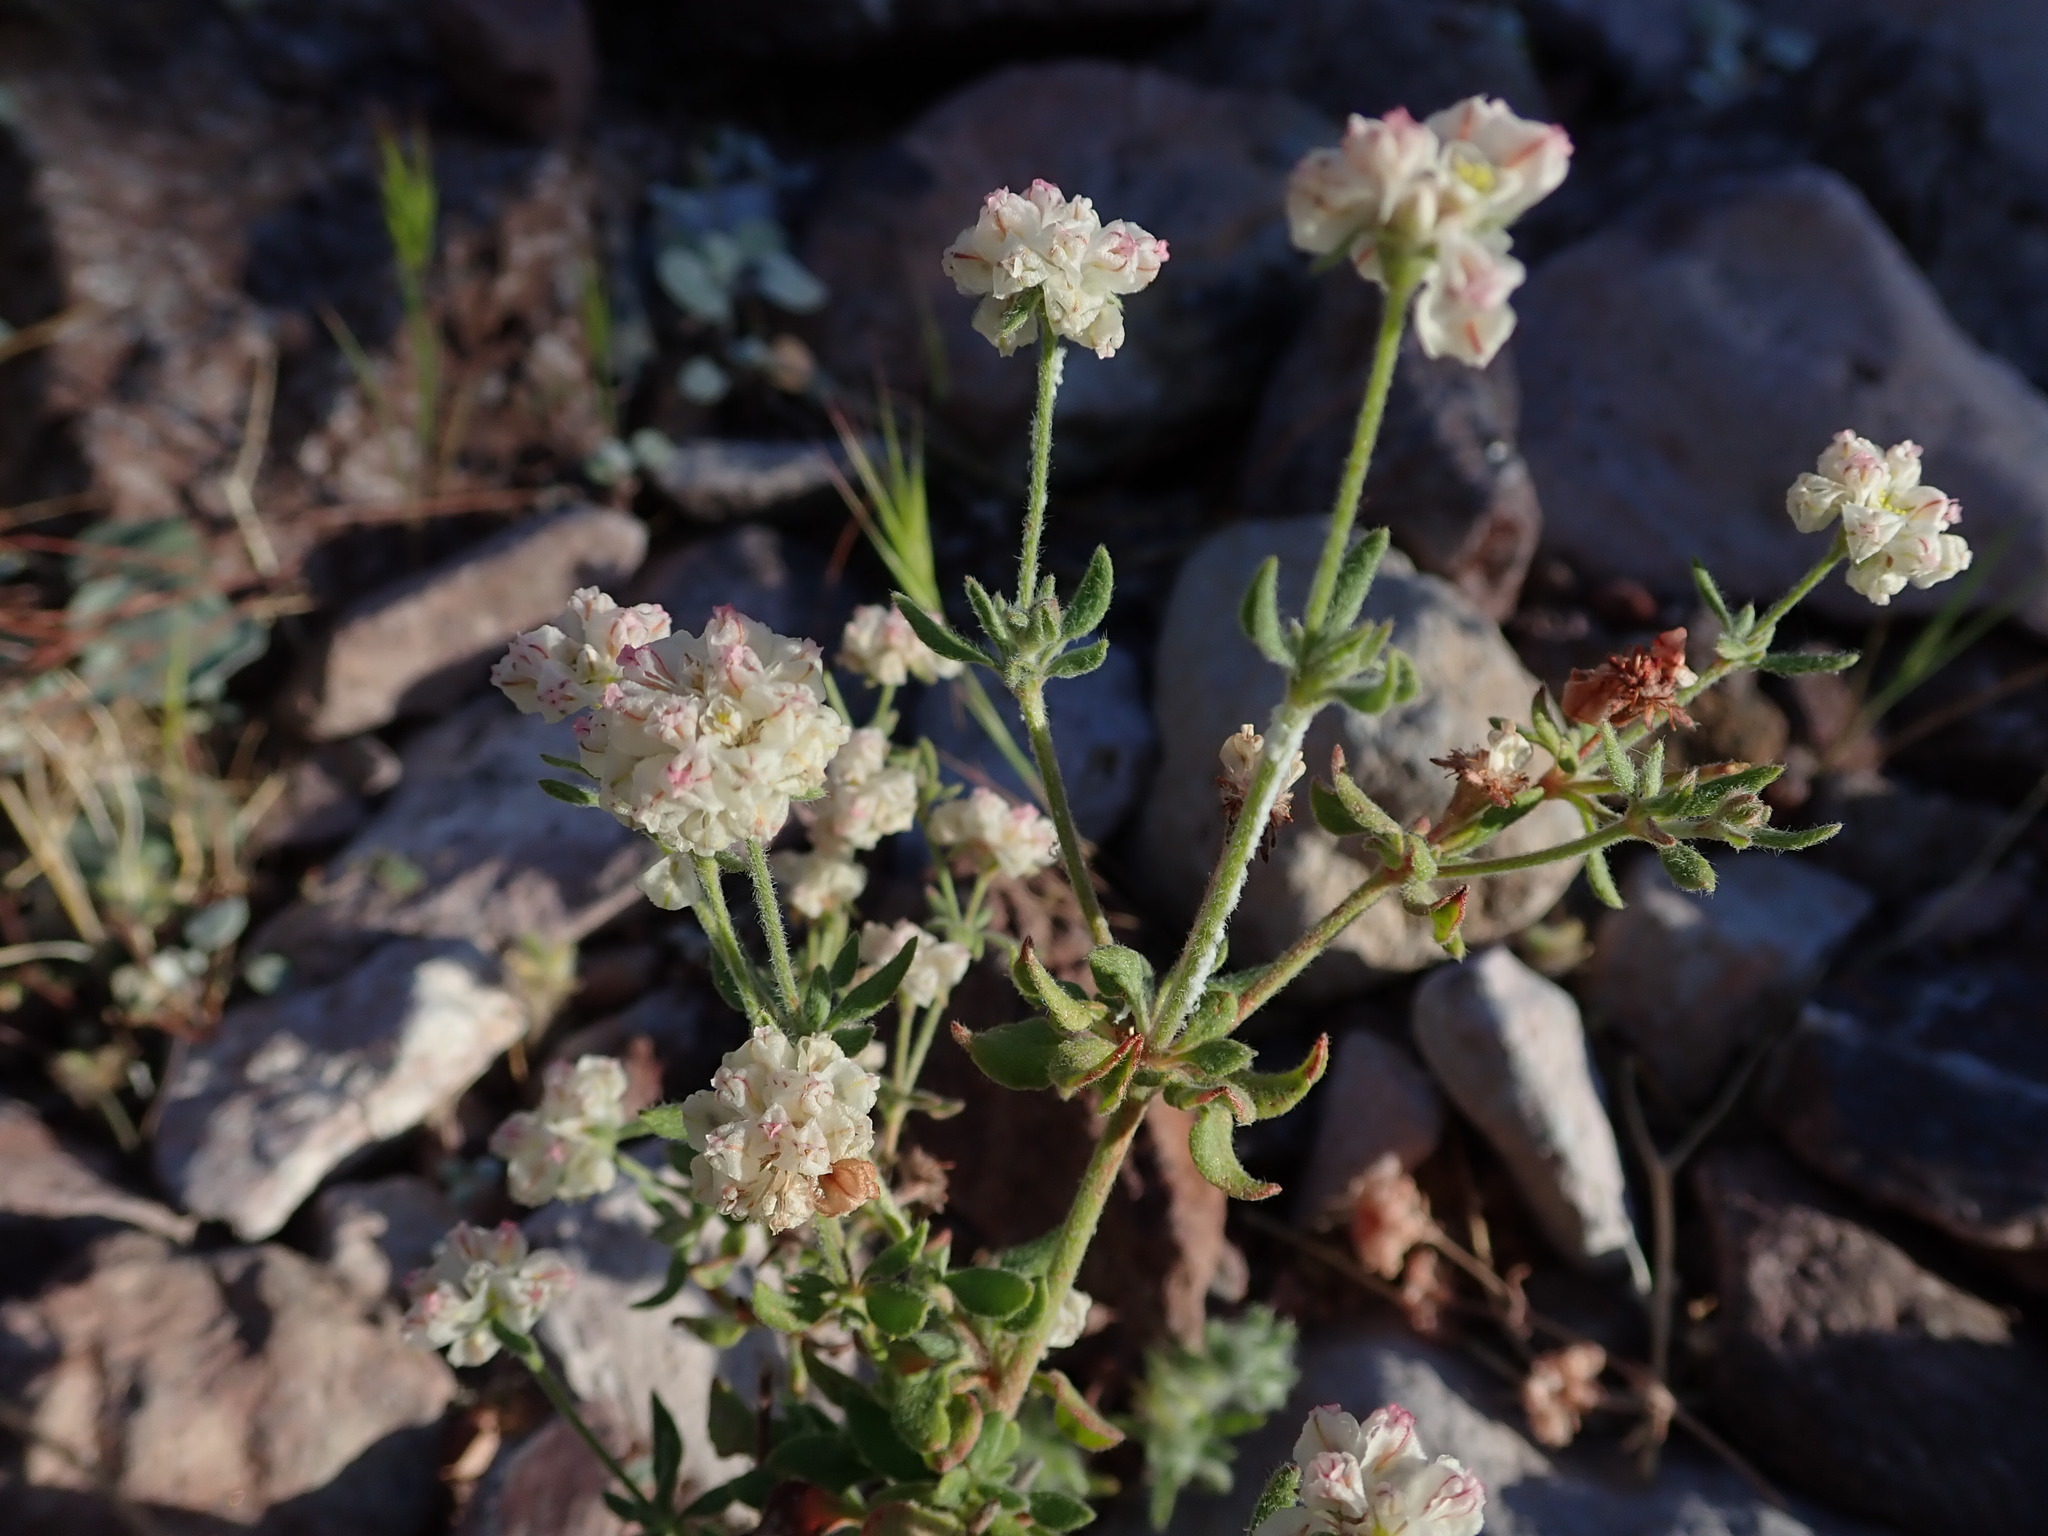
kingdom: Plantae
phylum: Tracheophyta
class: Magnoliopsida
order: Caryophyllales
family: Polygonaceae
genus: Eriogonum
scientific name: Eriogonum abertianum
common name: Abert's wild buckwheat
